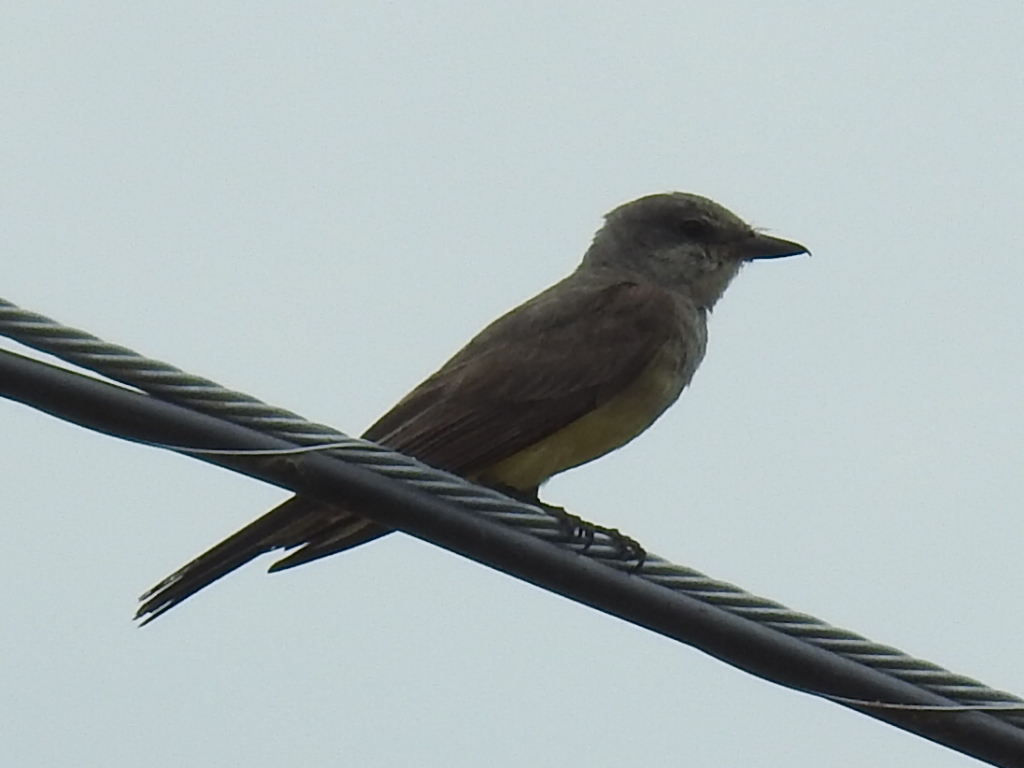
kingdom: Animalia
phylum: Chordata
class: Aves
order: Passeriformes
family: Tyrannidae
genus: Tyrannus
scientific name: Tyrannus verticalis
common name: Western kingbird
